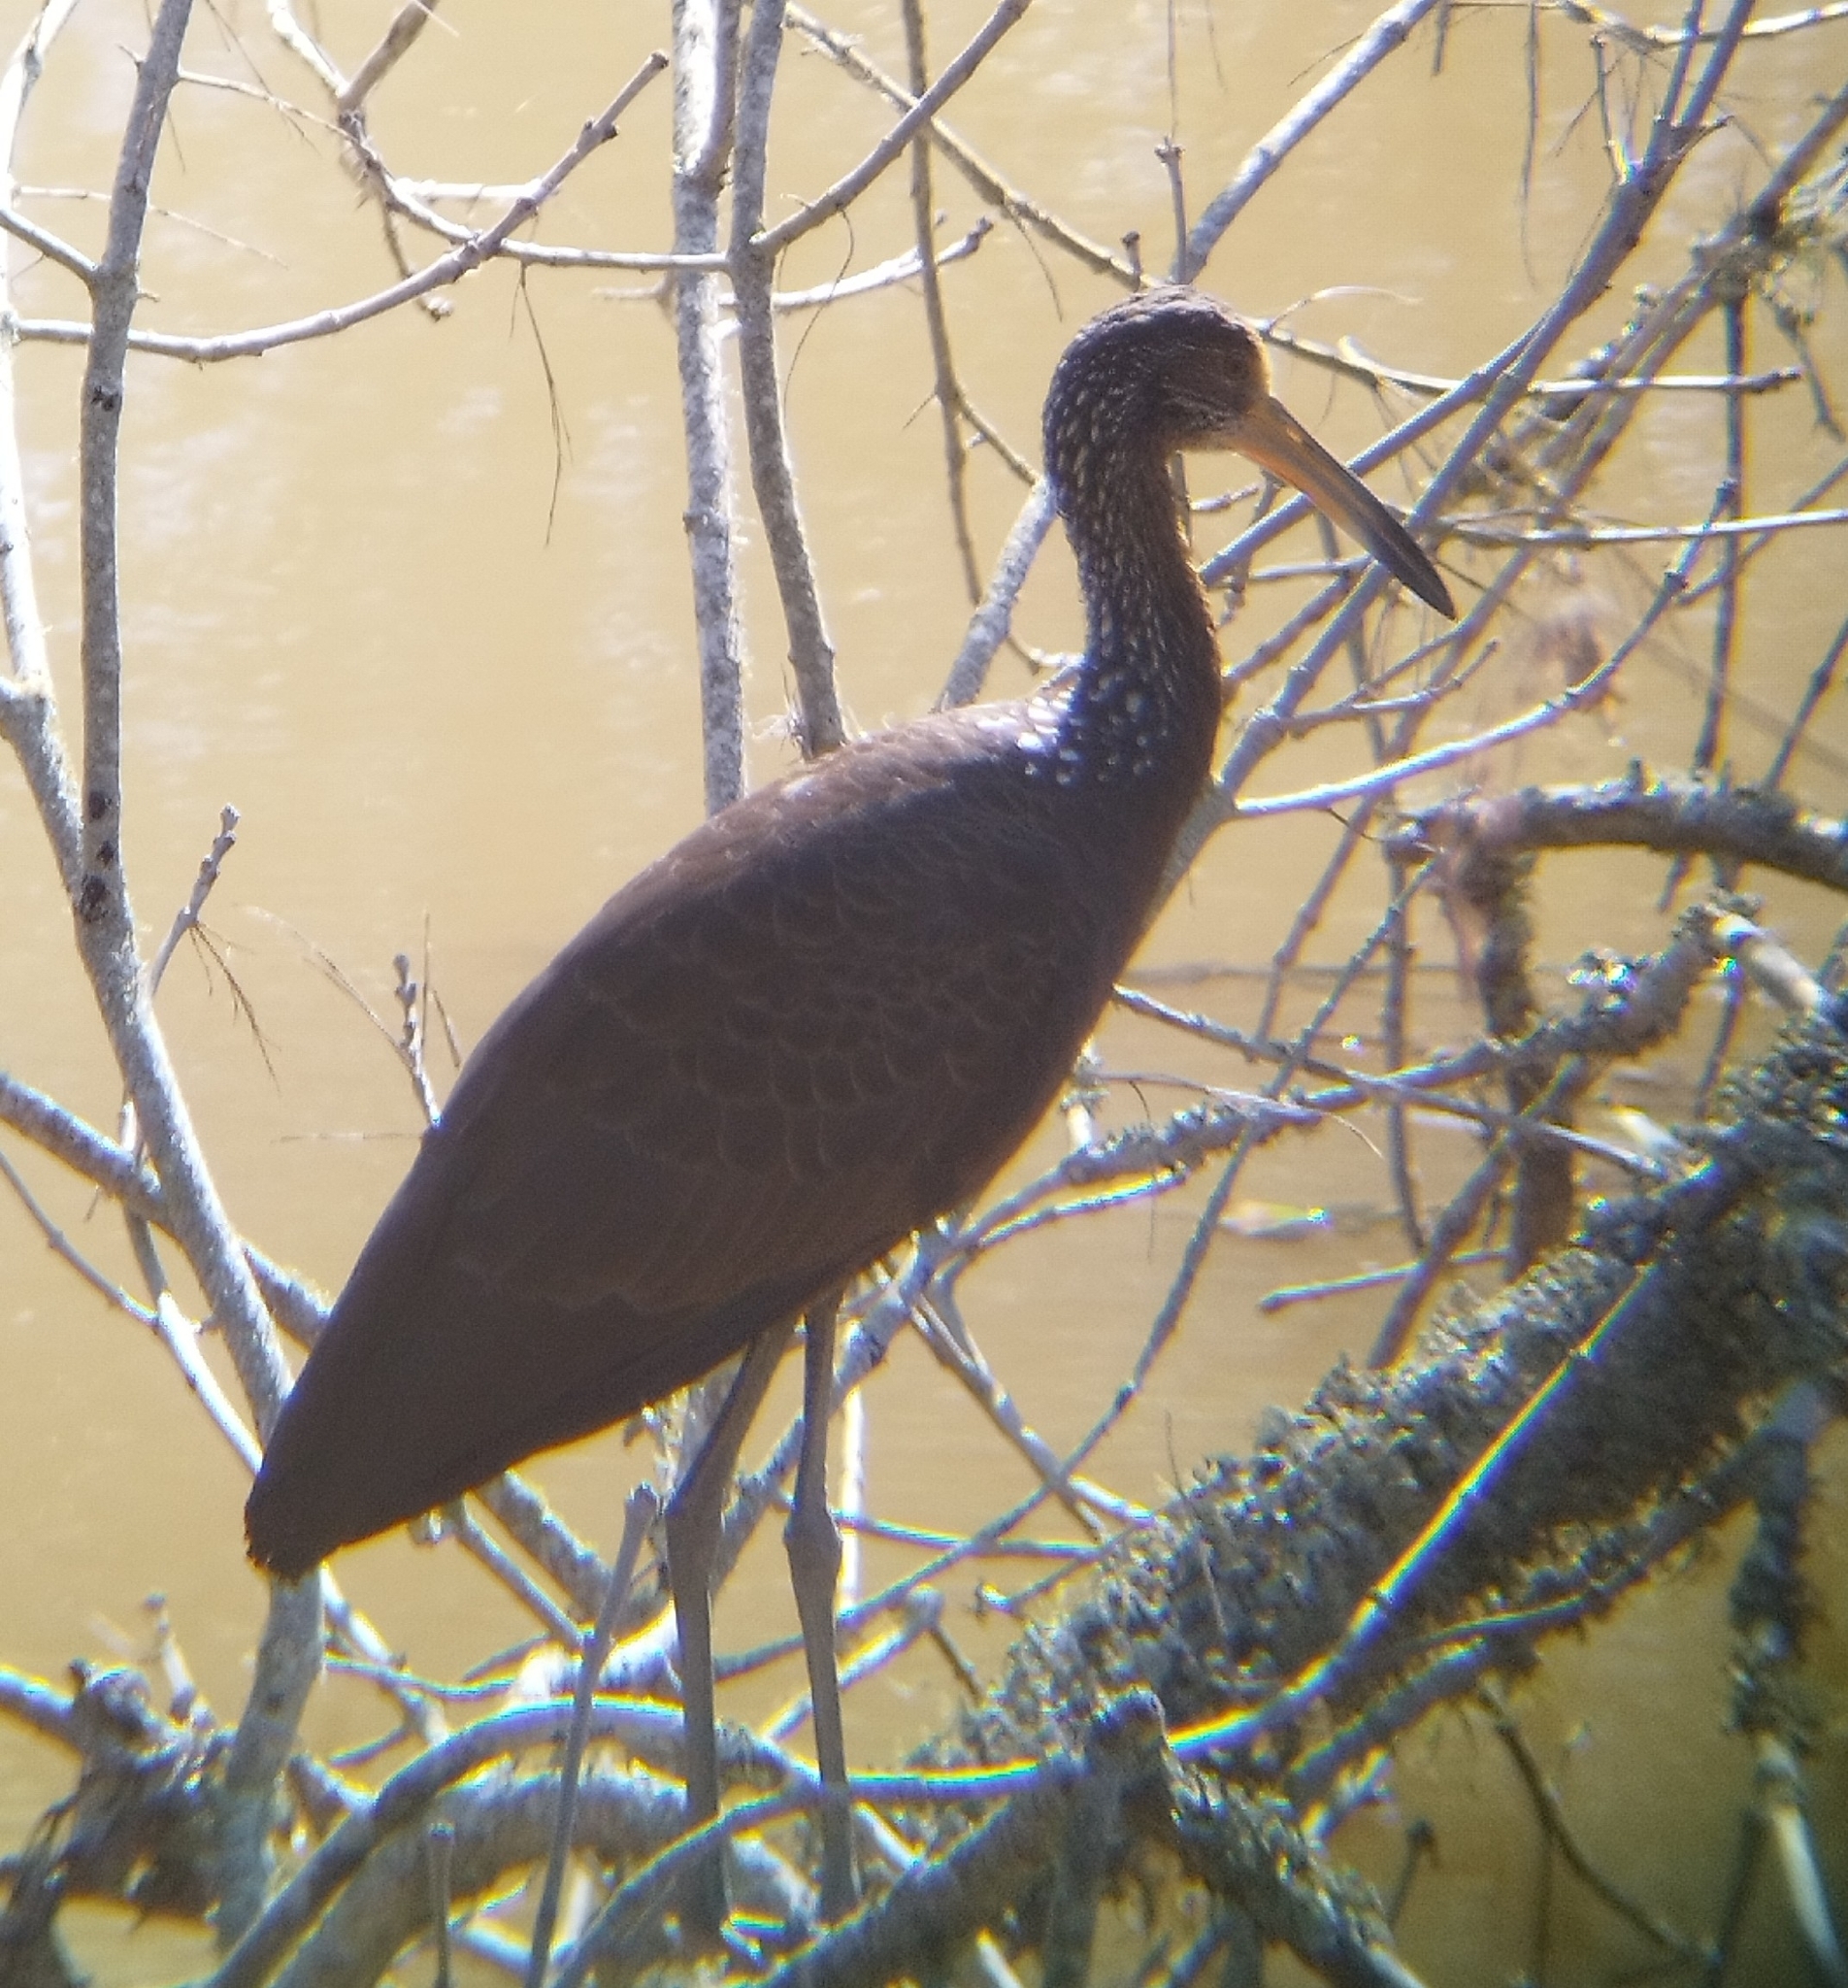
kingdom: Animalia
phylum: Chordata
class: Aves
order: Gruiformes
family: Aramidae
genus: Aramus
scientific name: Aramus guarauna
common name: Limpkin
